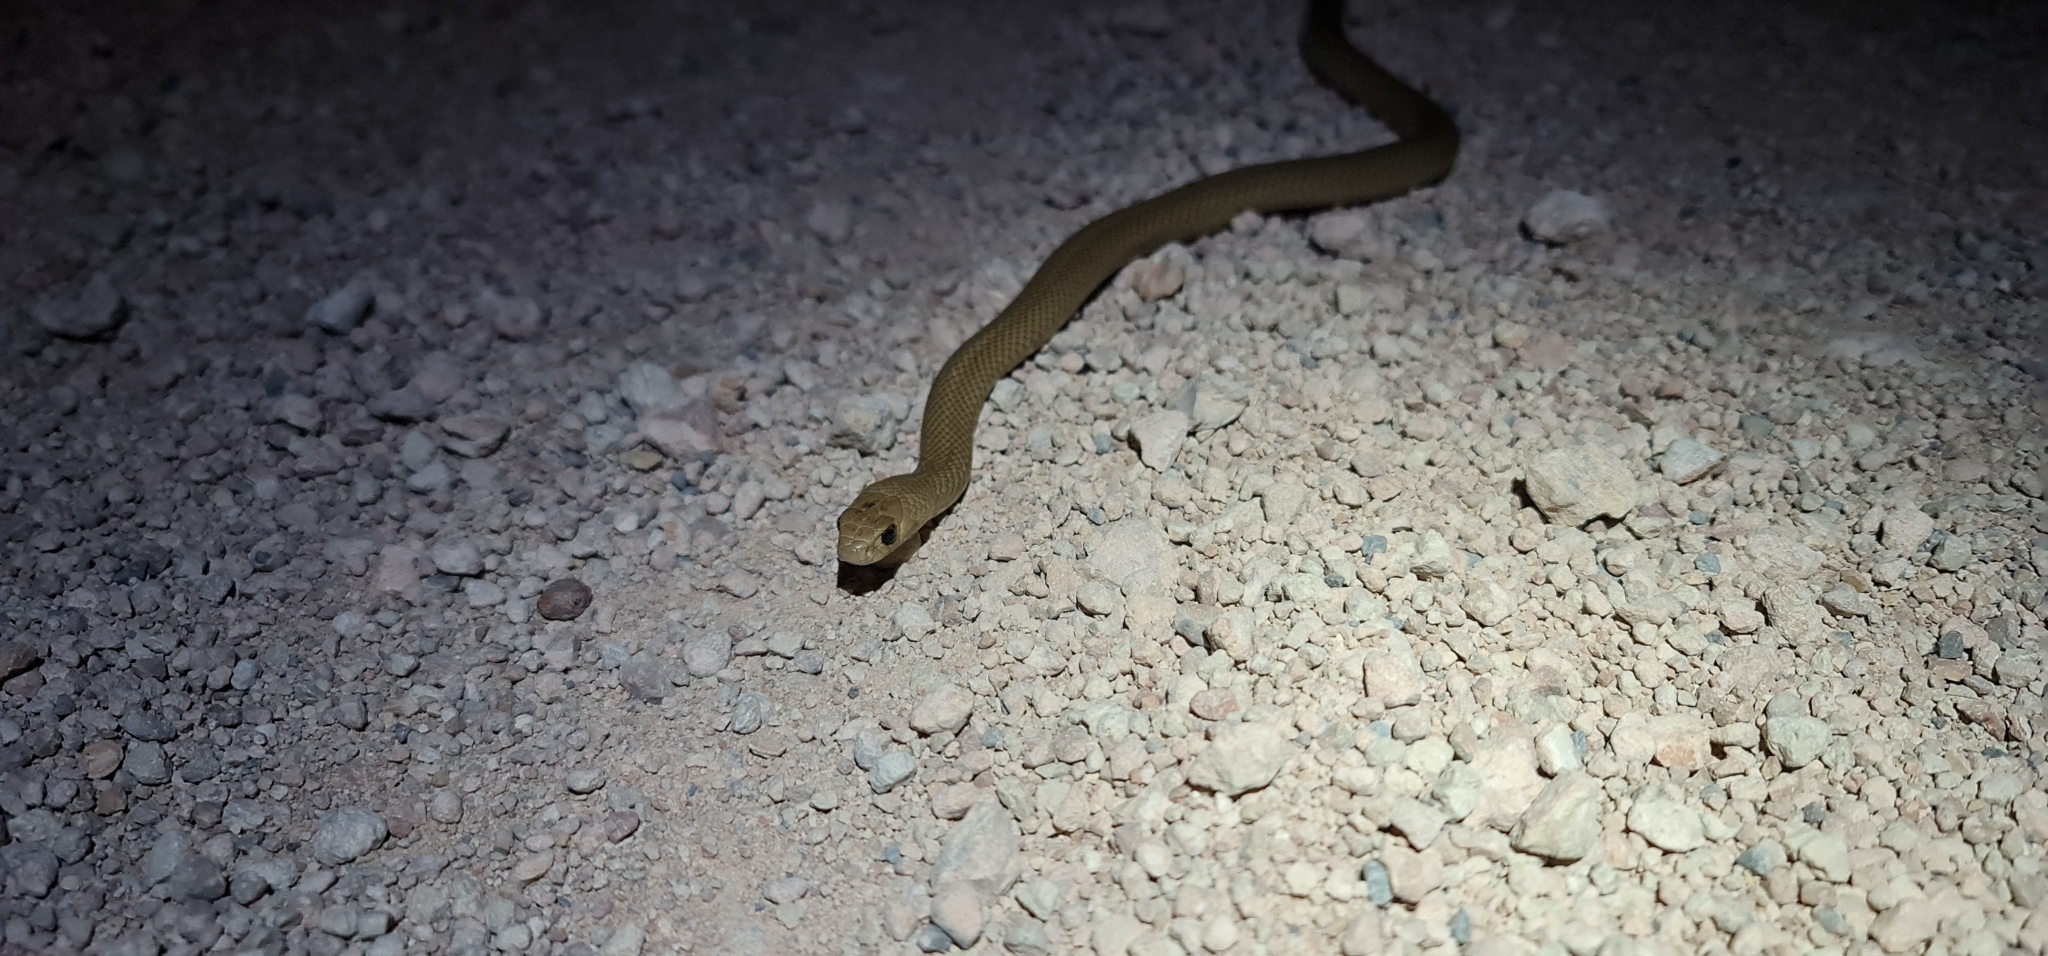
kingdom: Animalia
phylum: Chordata
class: Squamata
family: Elapidae
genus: Pseudonaja
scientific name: Pseudonaja textilis
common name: Eastern brown snake
